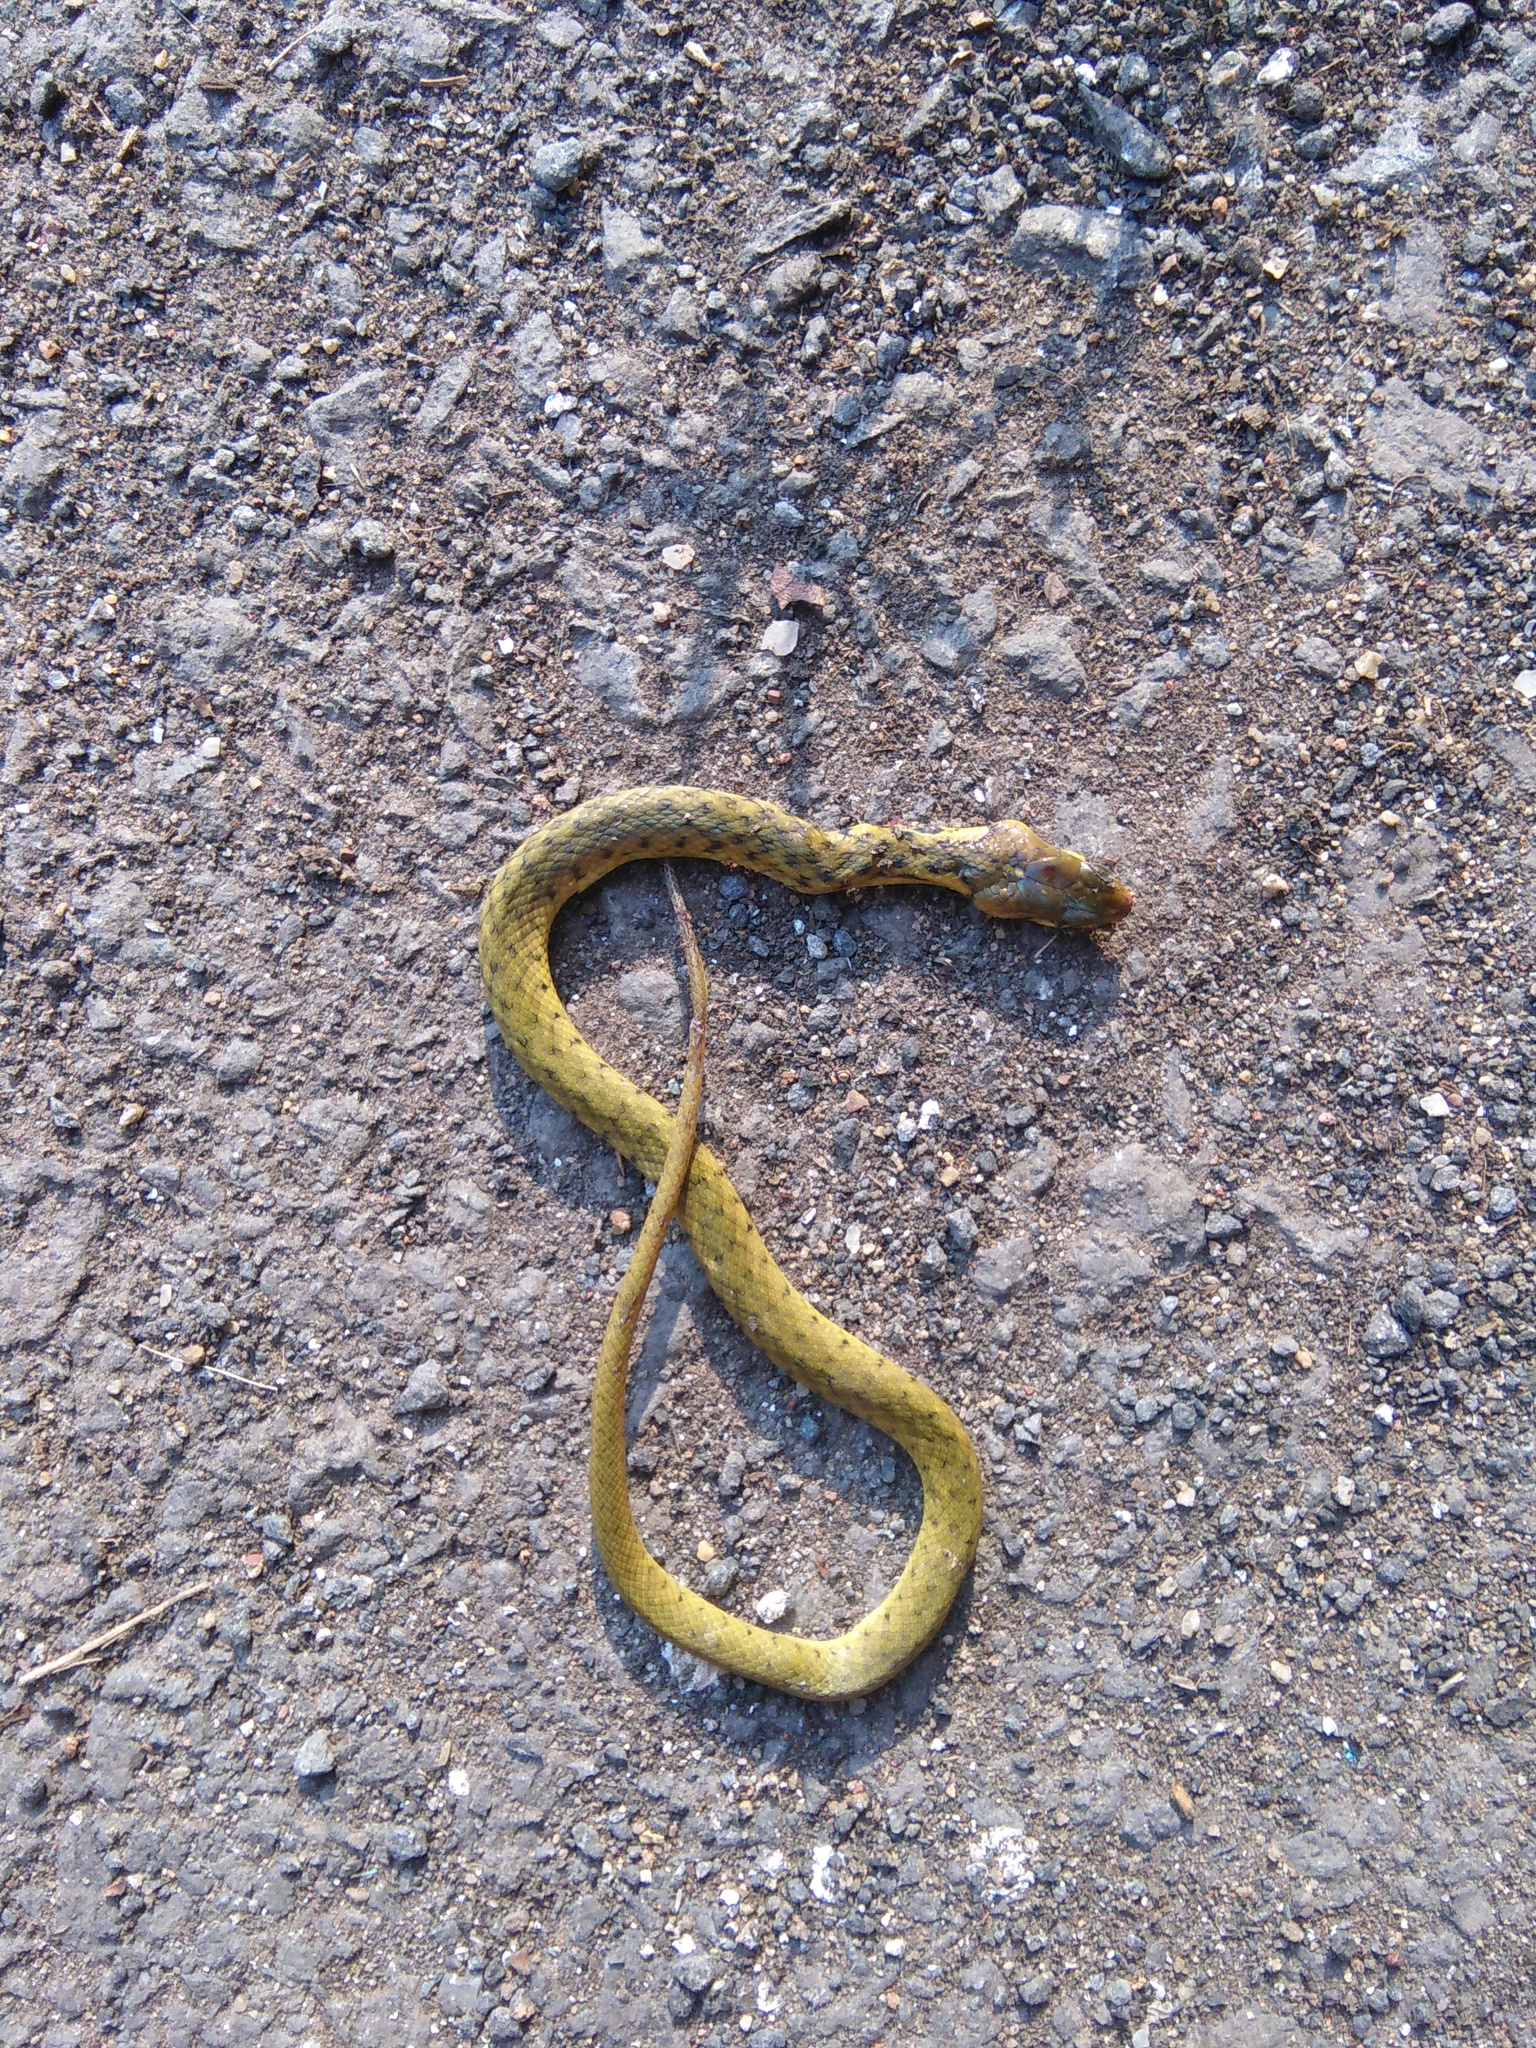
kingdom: Animalia
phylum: Chordata
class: Squamata
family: Colubridae
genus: Fowlea
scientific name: Fowlea piscator
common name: Asiatic water snake
